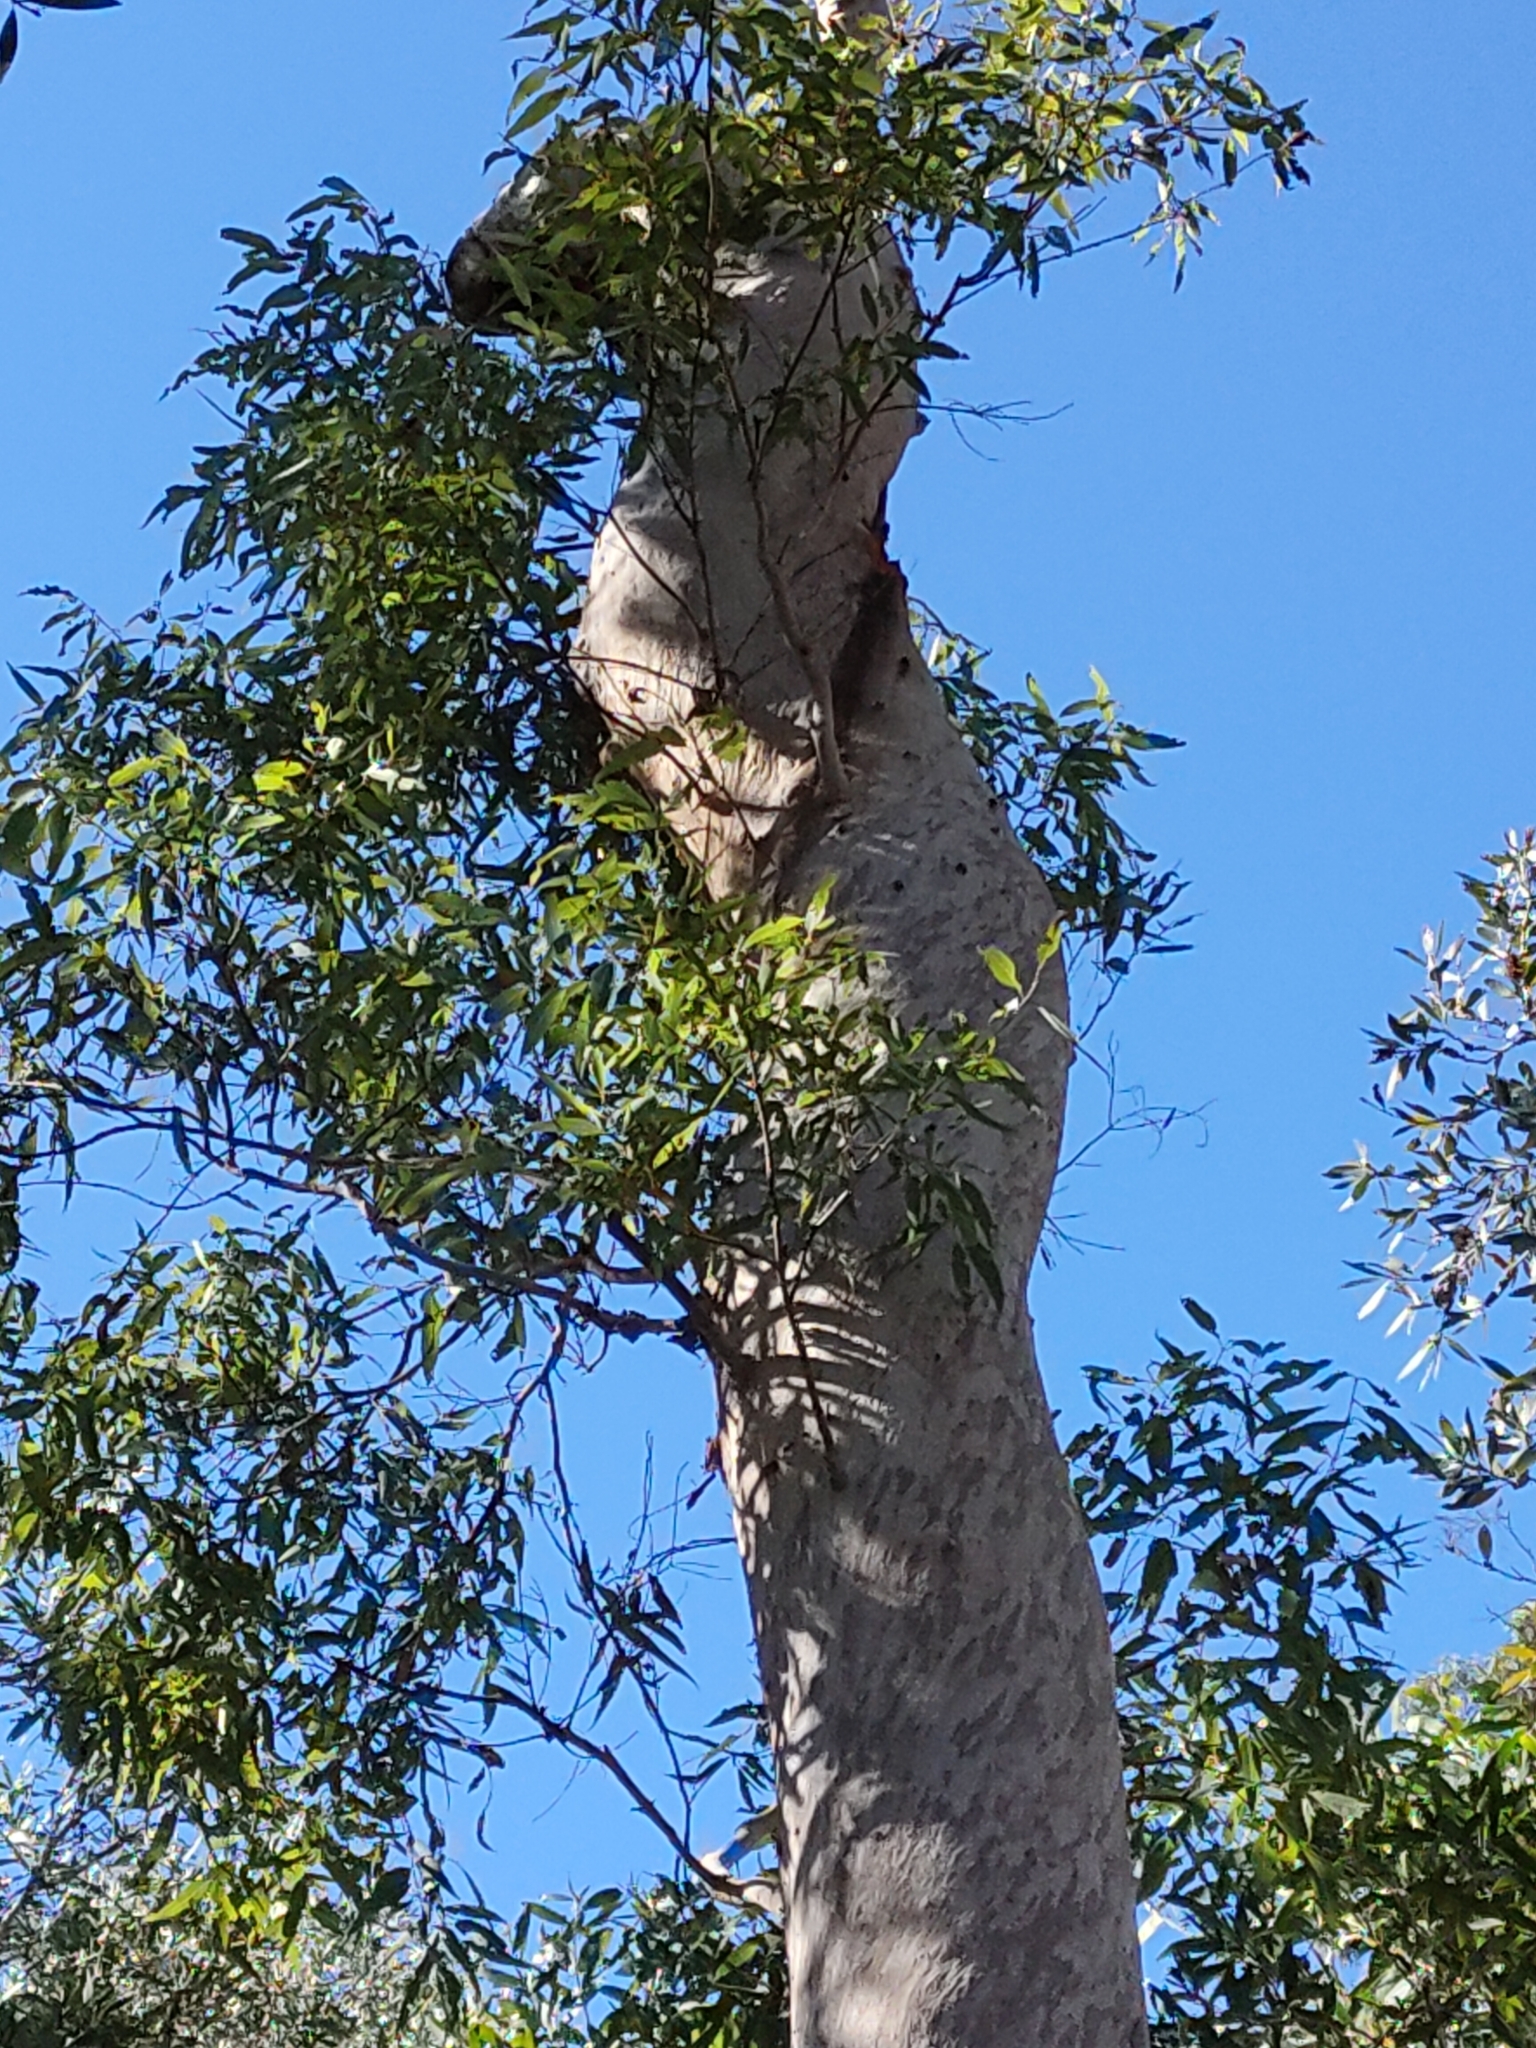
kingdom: Plantae
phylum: Tracheophyta
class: Magnoliopsida
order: Myrtales
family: Myrtaceae
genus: Angophora
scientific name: Angophora leiocarpa
